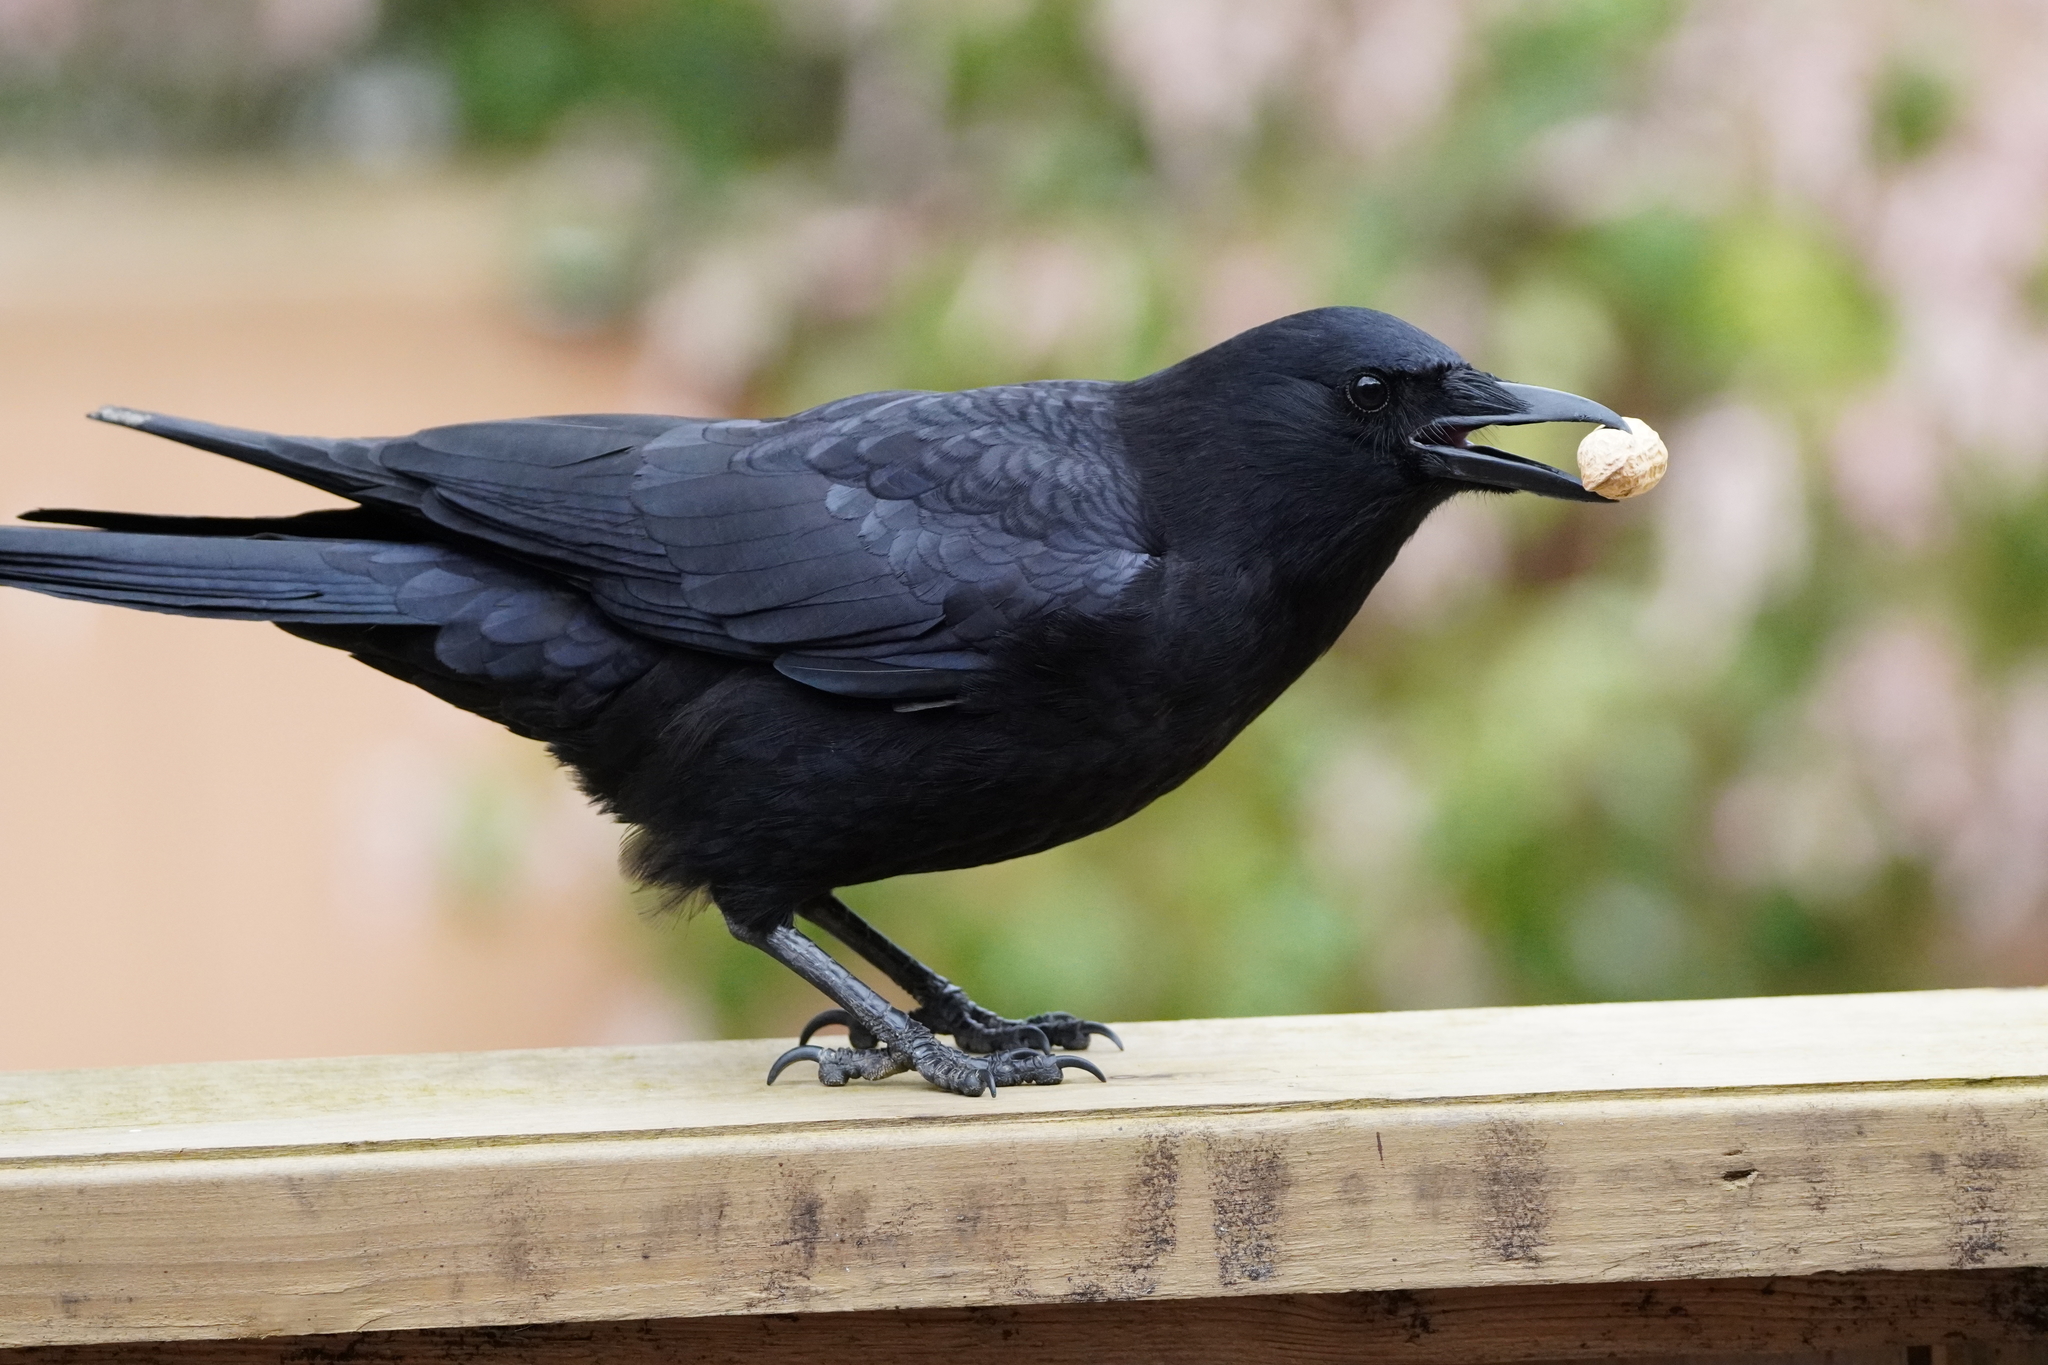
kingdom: Animalia
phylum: Chordata
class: Aves
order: Passeriformes
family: Corvidae
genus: Corvus
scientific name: Corvus brachyrhynchos
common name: American crow
